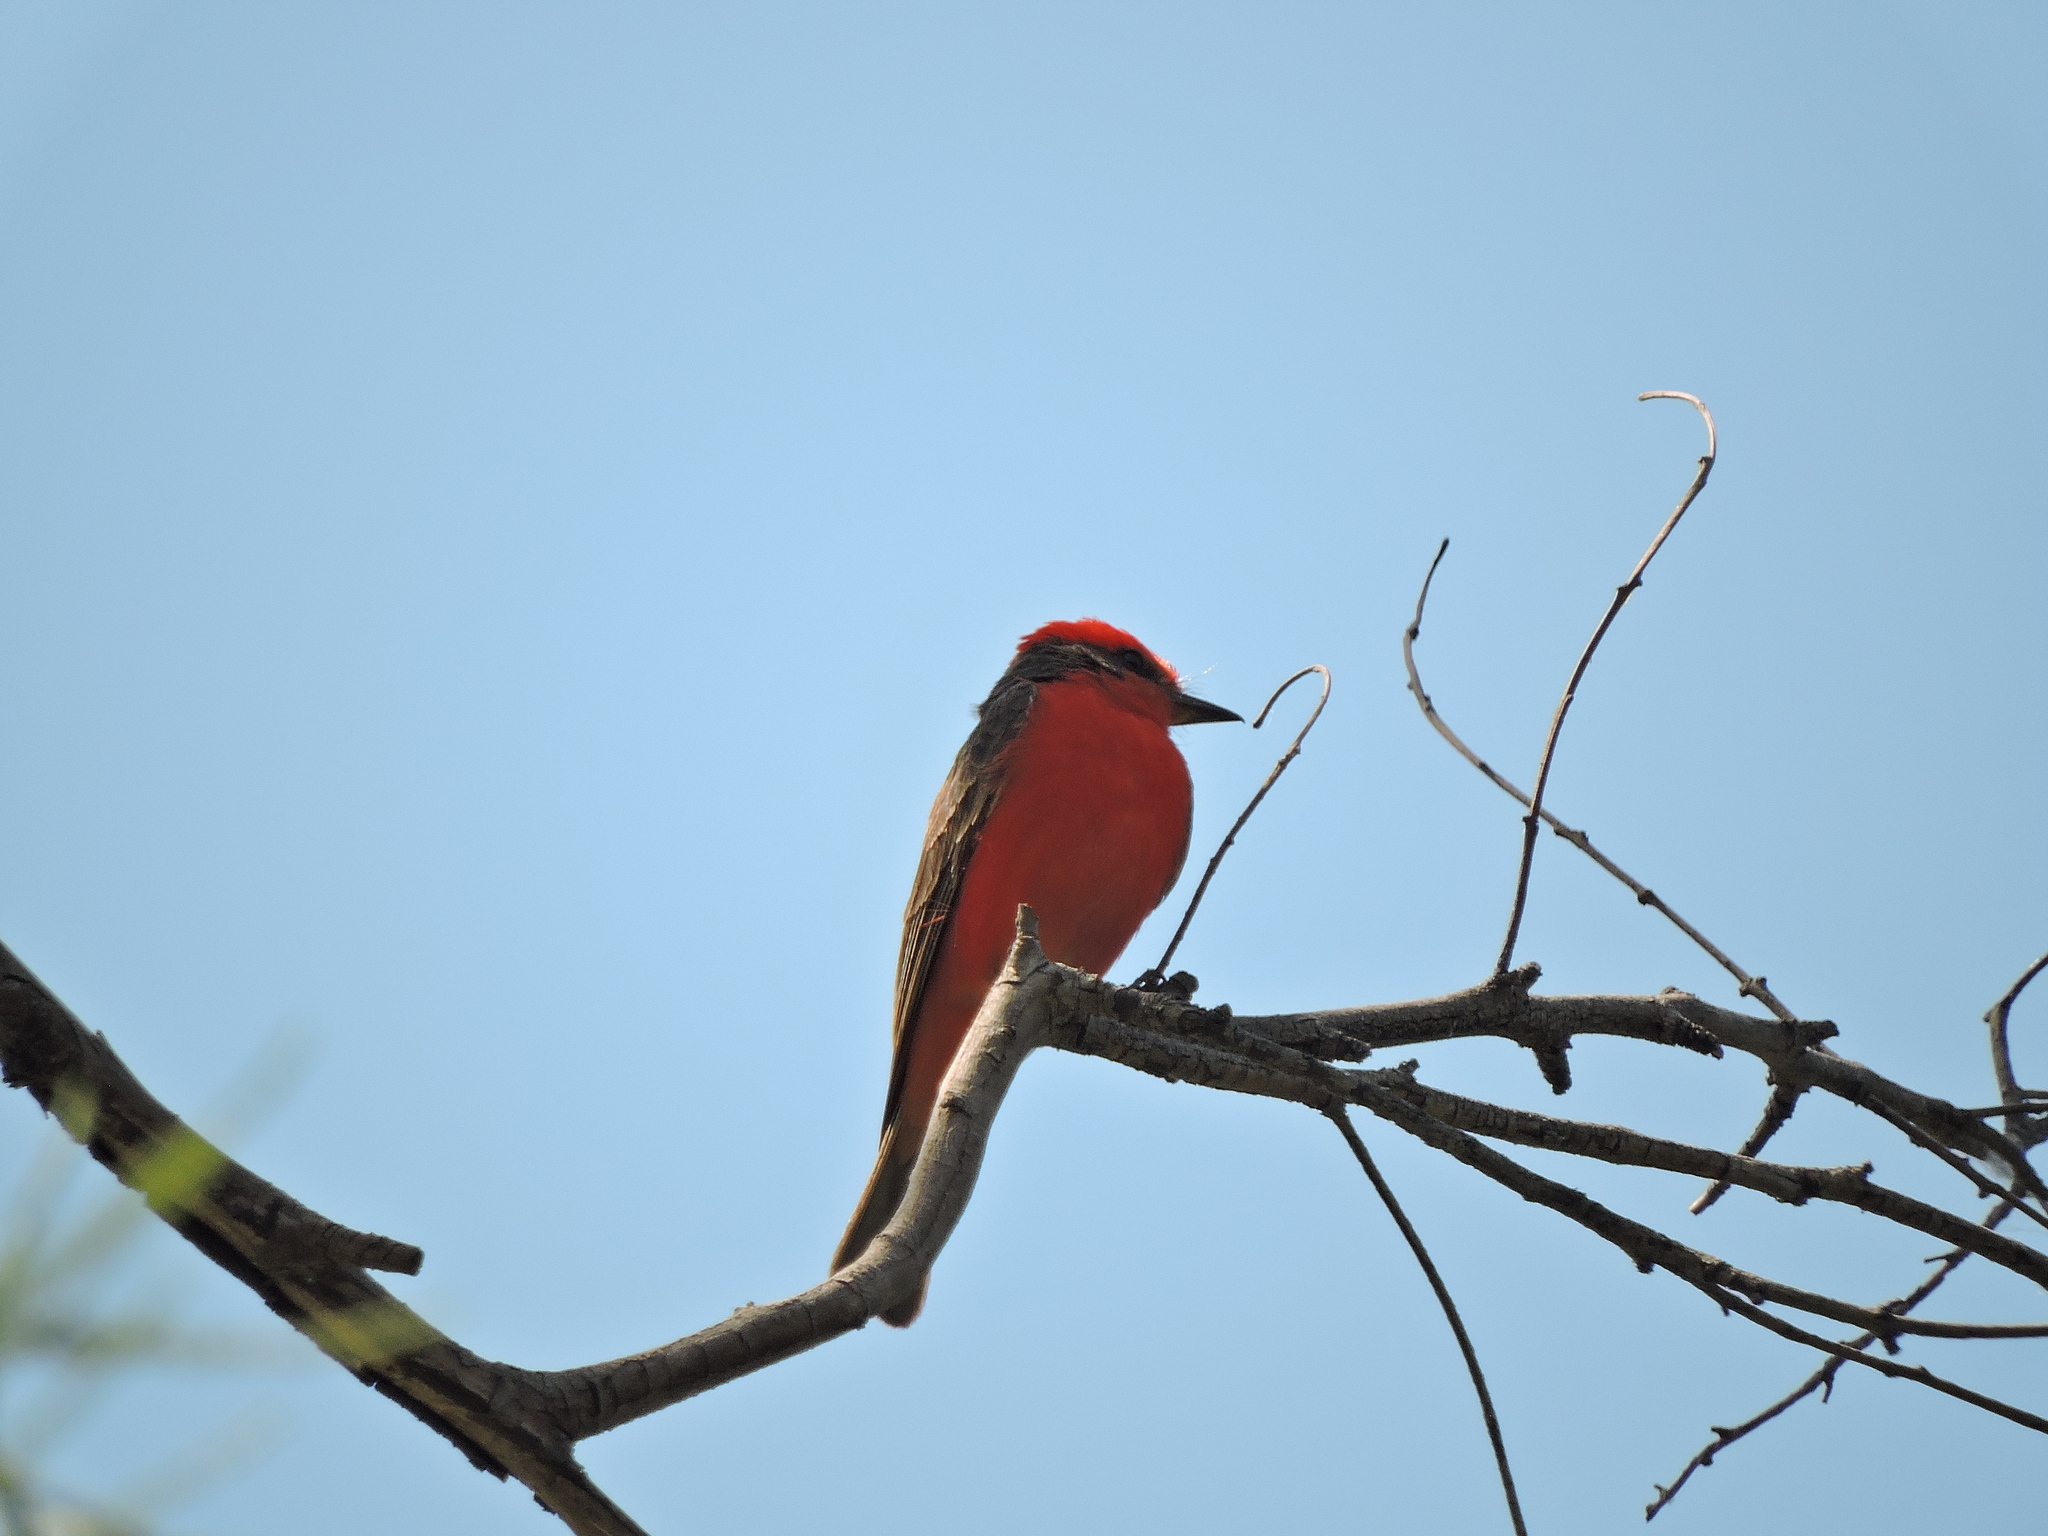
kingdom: Animalia
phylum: Chordata
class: Aves
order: Passeriformes
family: Tyrannidae
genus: Pyrocephalus
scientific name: Pyrocephalus rubinus
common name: Vermilion flycatcher
